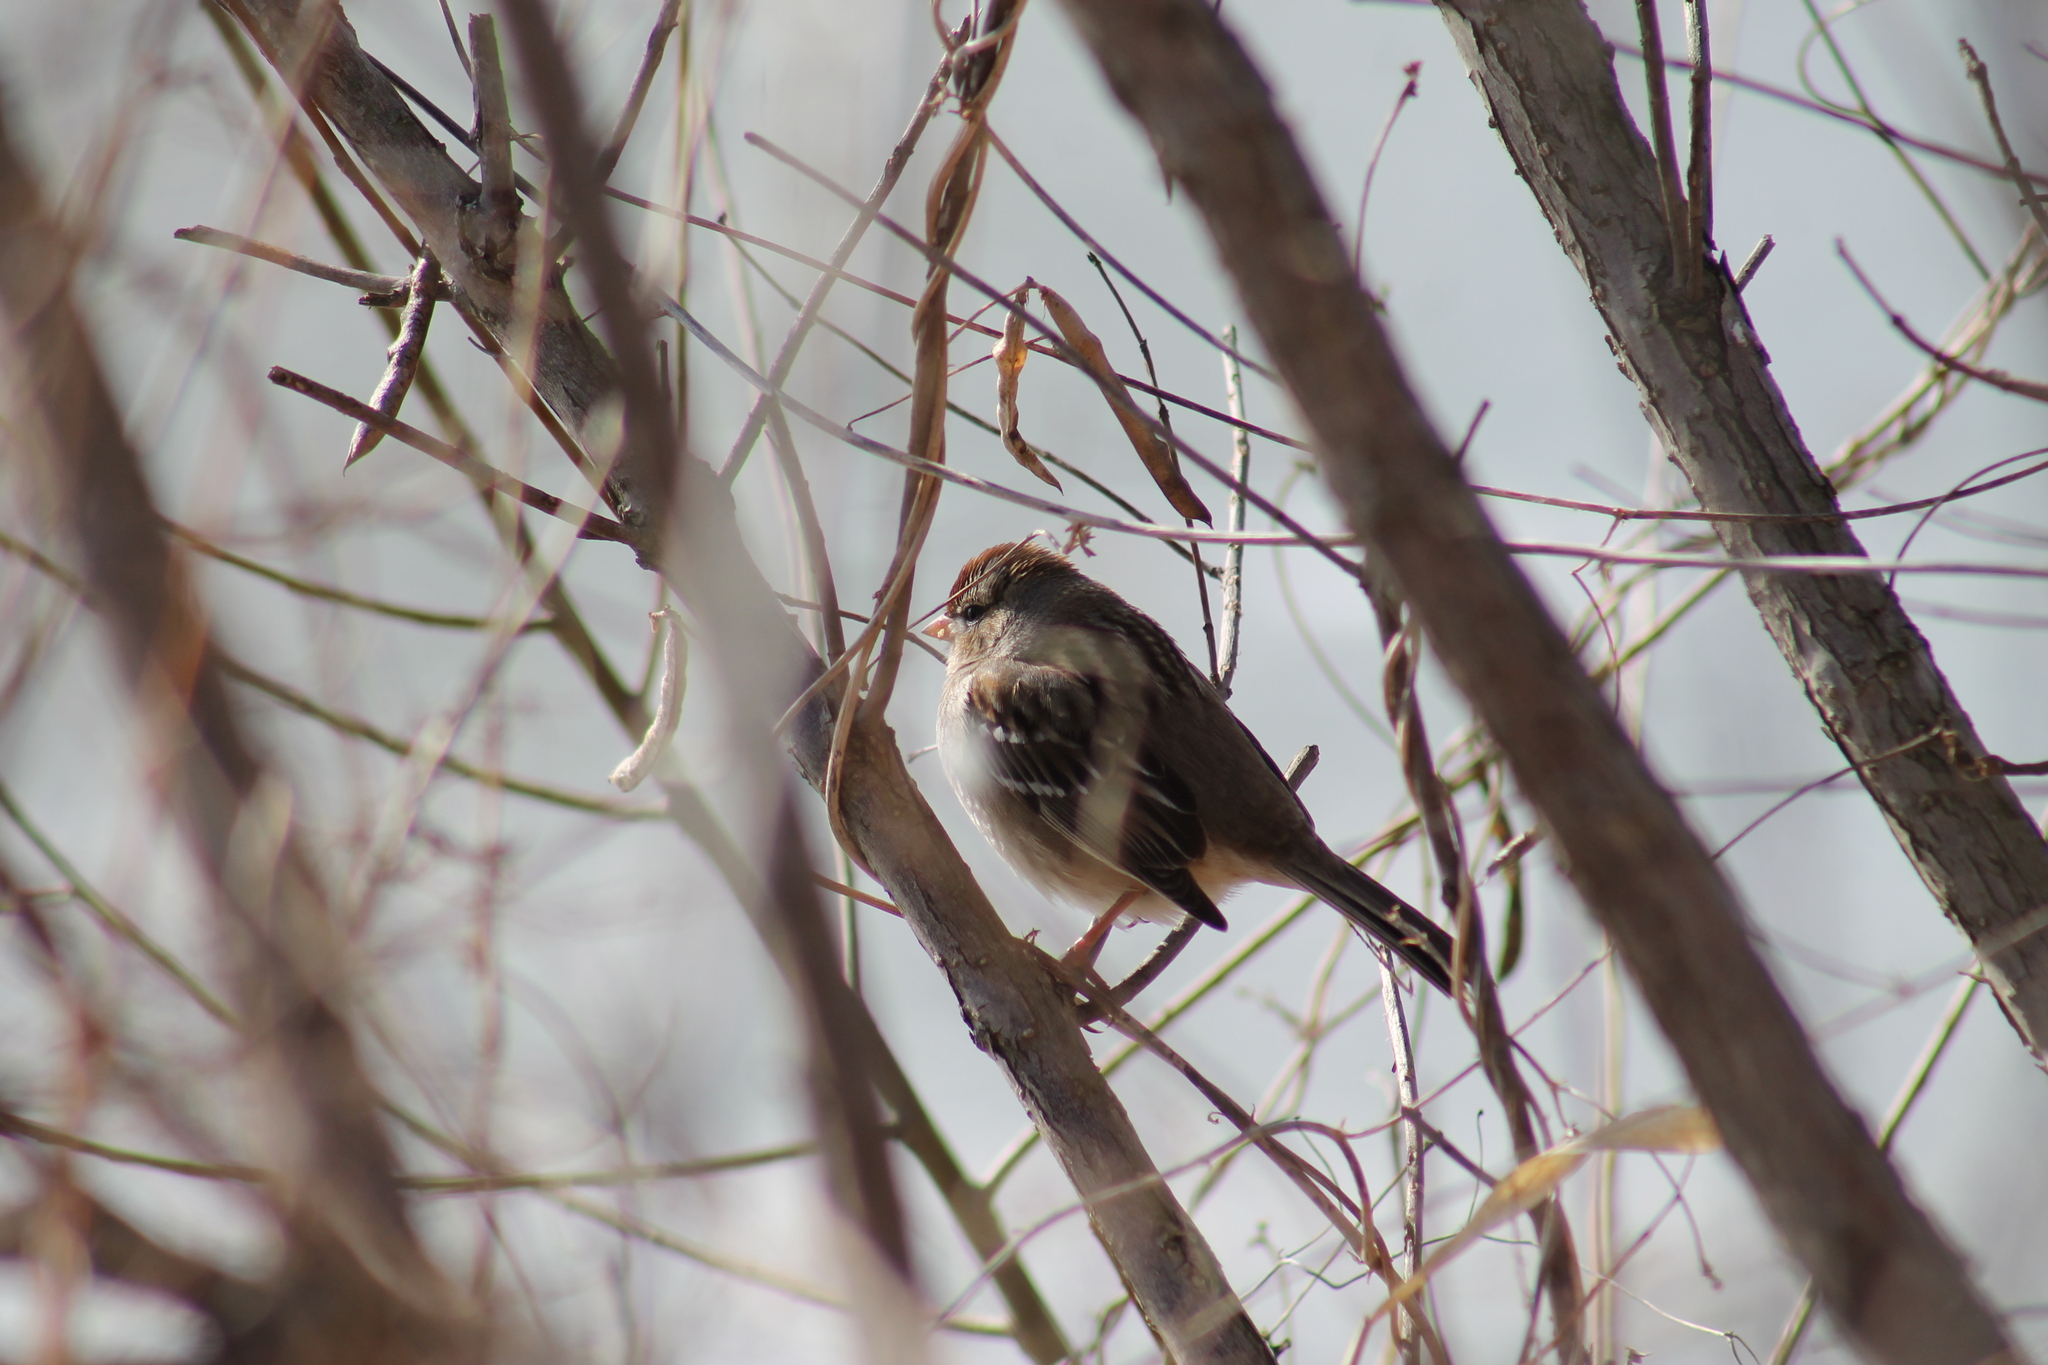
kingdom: Animalia
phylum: Chordata
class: Aves
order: Passeriformes
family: Passerellidae
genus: Zonotrichia
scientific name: Zonotrichia leucophrys
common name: White-crowned sparrow
